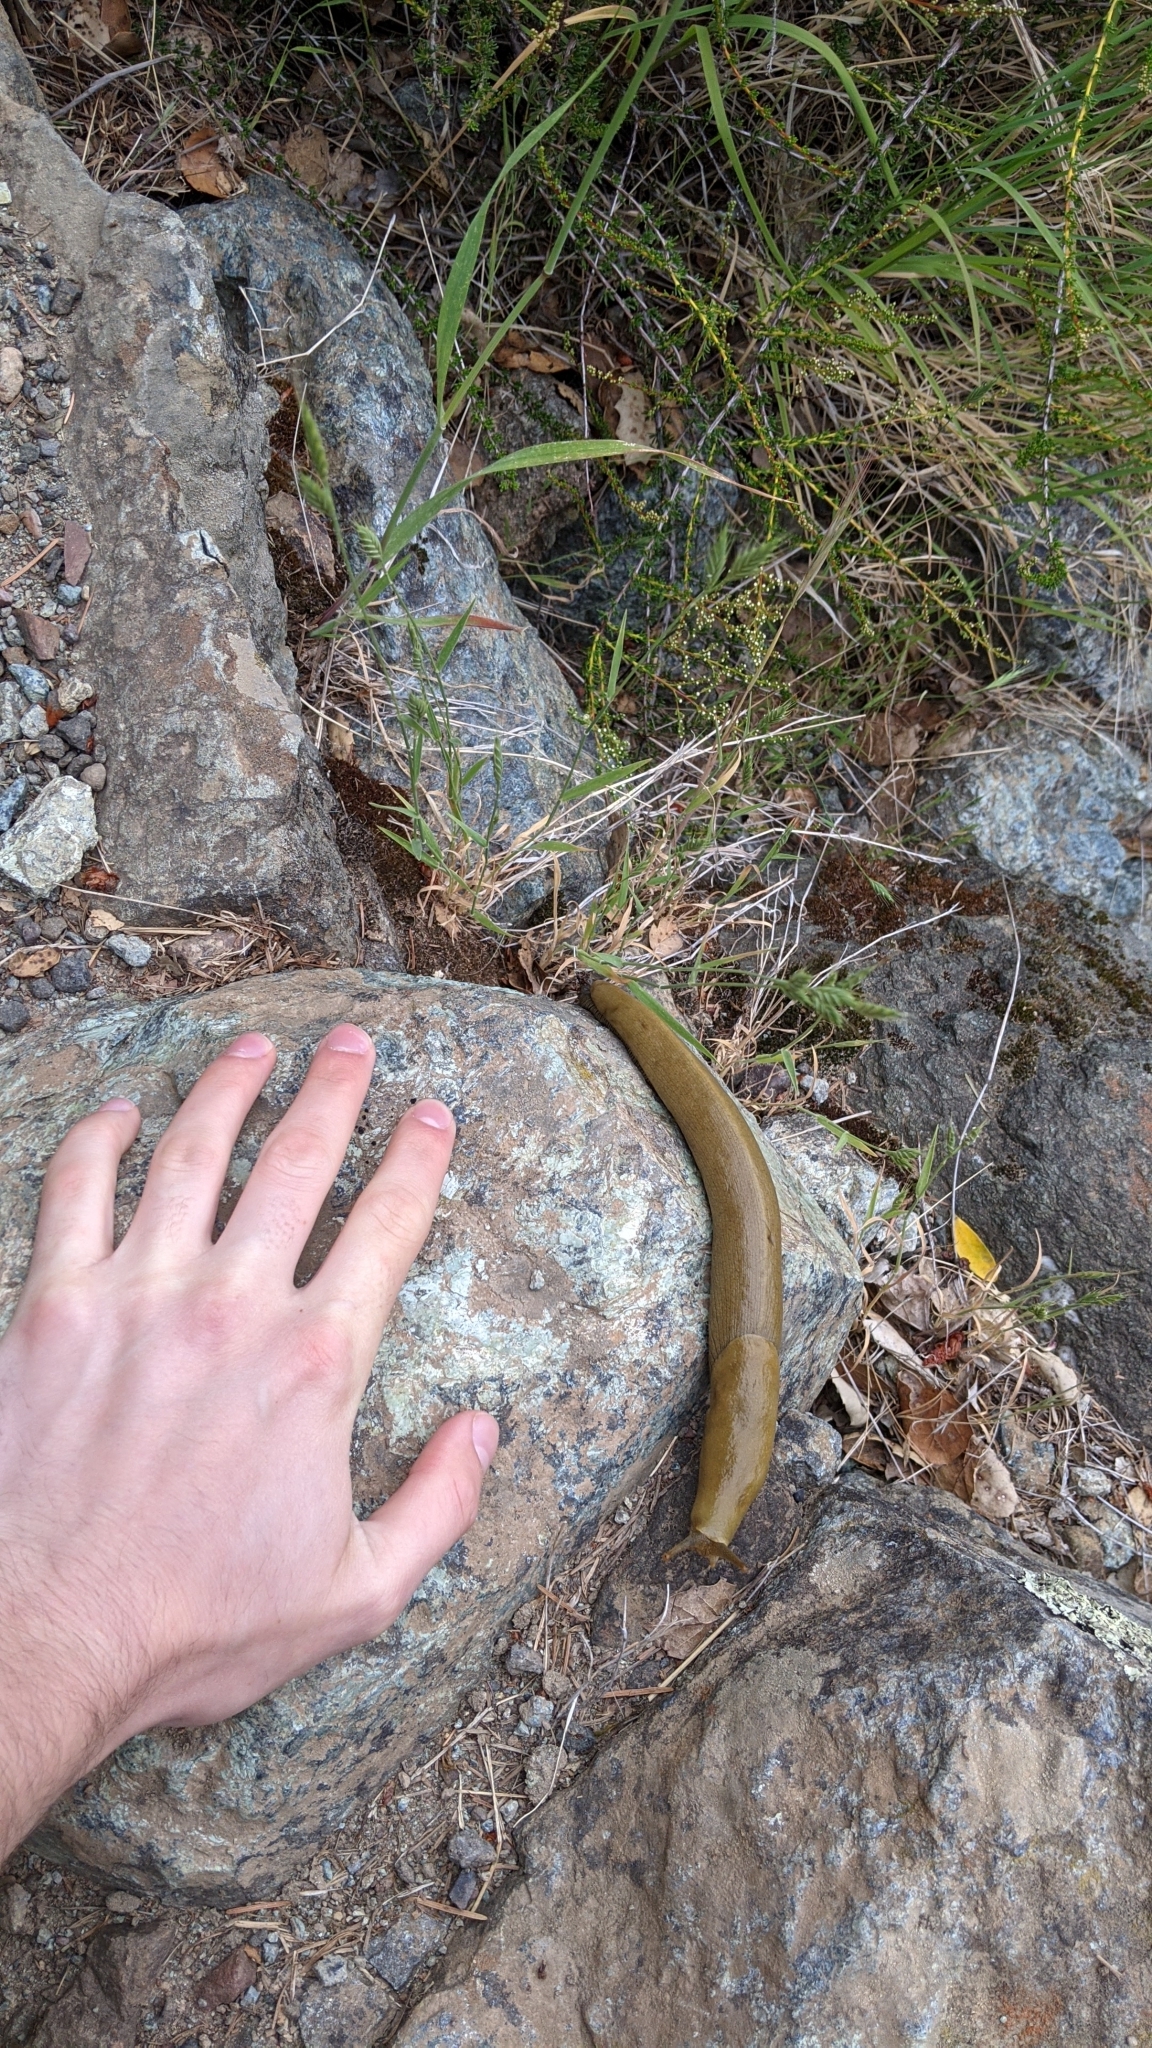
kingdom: Animalia
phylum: Mollusca
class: Gastropoda
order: Stylommatophora
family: Ariolimacidae
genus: Ariolimax
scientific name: Ariolimax buttoni
